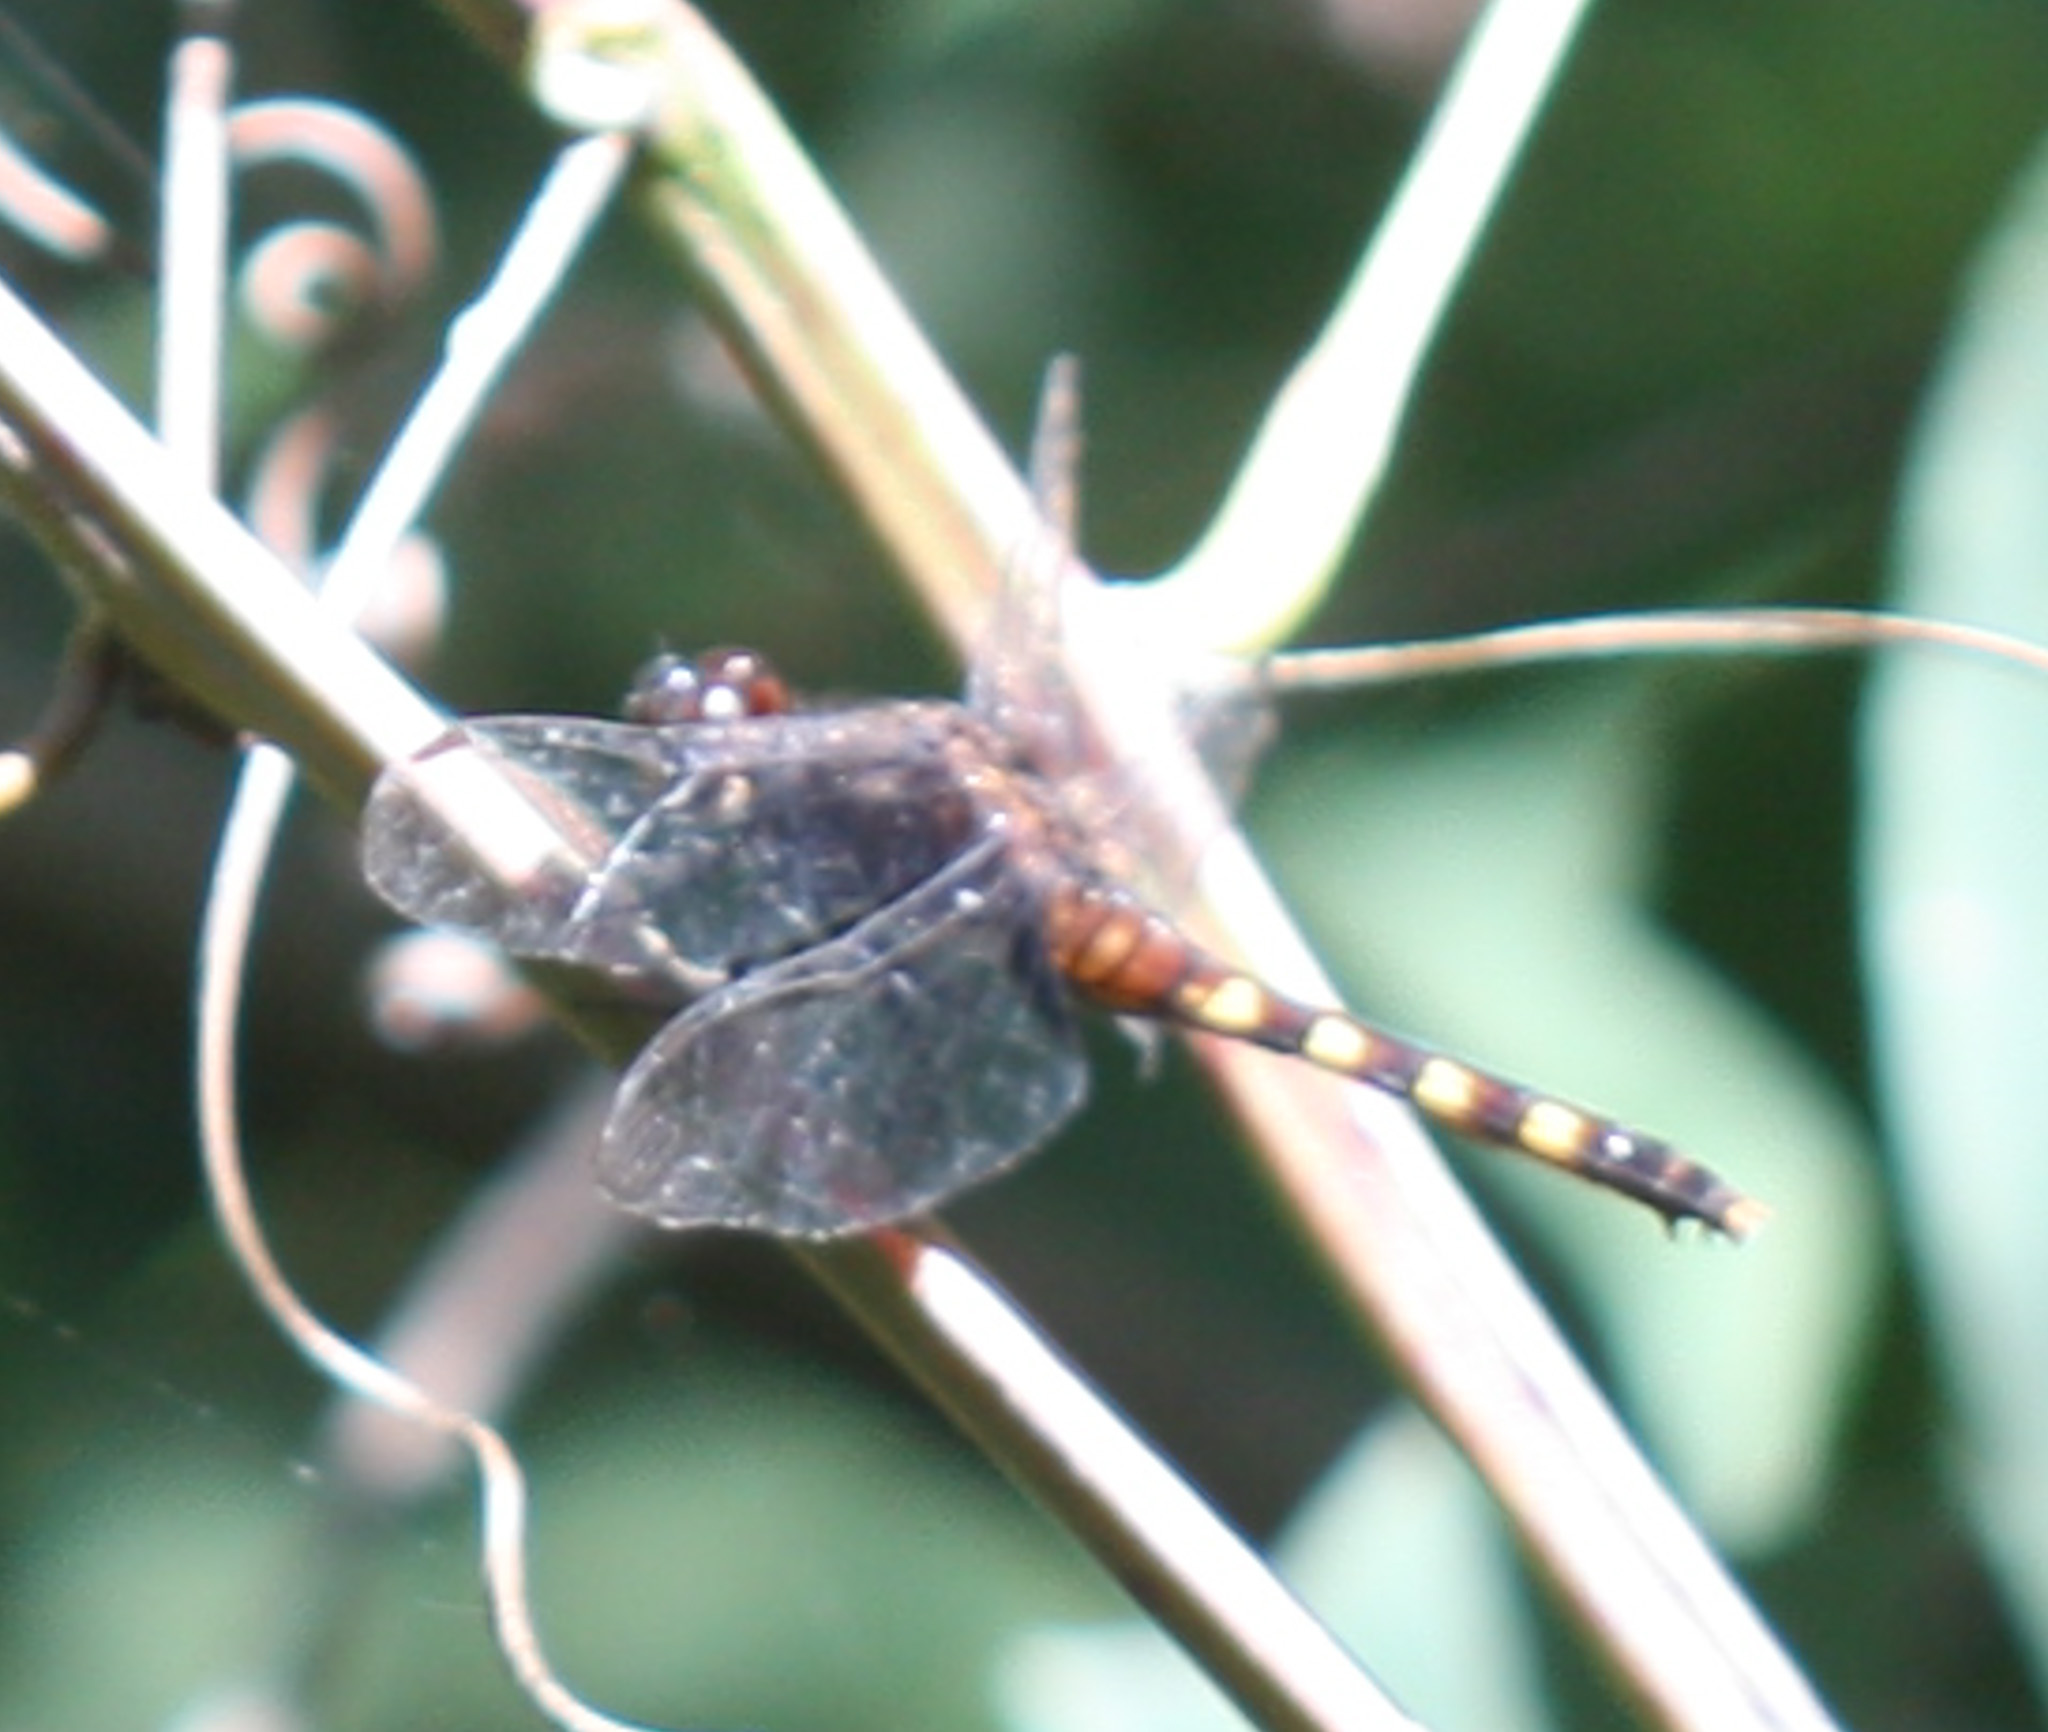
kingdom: Animalia
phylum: Arthropoda
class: Insecta
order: Odonata
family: Libellulidae
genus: Erythemis
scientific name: Erythemis attala
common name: Black pondhawk
